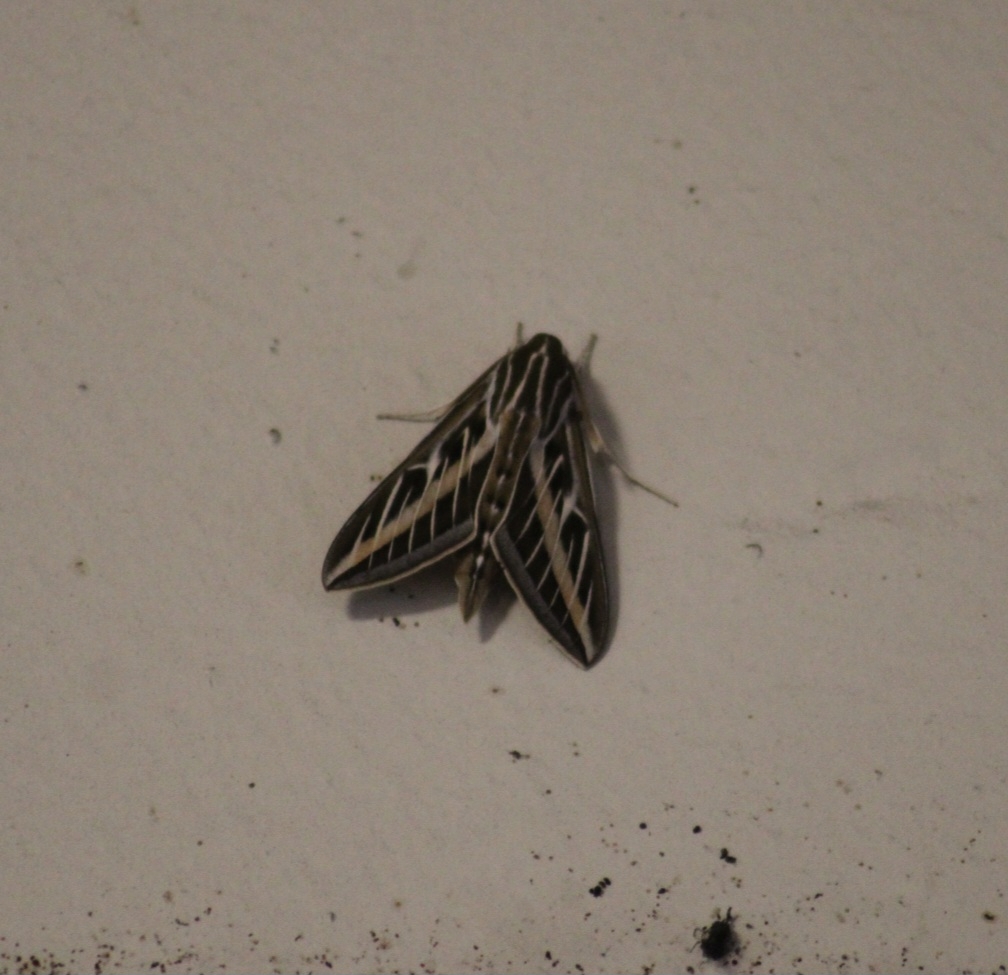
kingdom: Animalia
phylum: Arthropoda
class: Insecta
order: Lepidoptera
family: Sphingidae
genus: Hyles
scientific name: Hyles lineata
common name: White-lined sphinx
